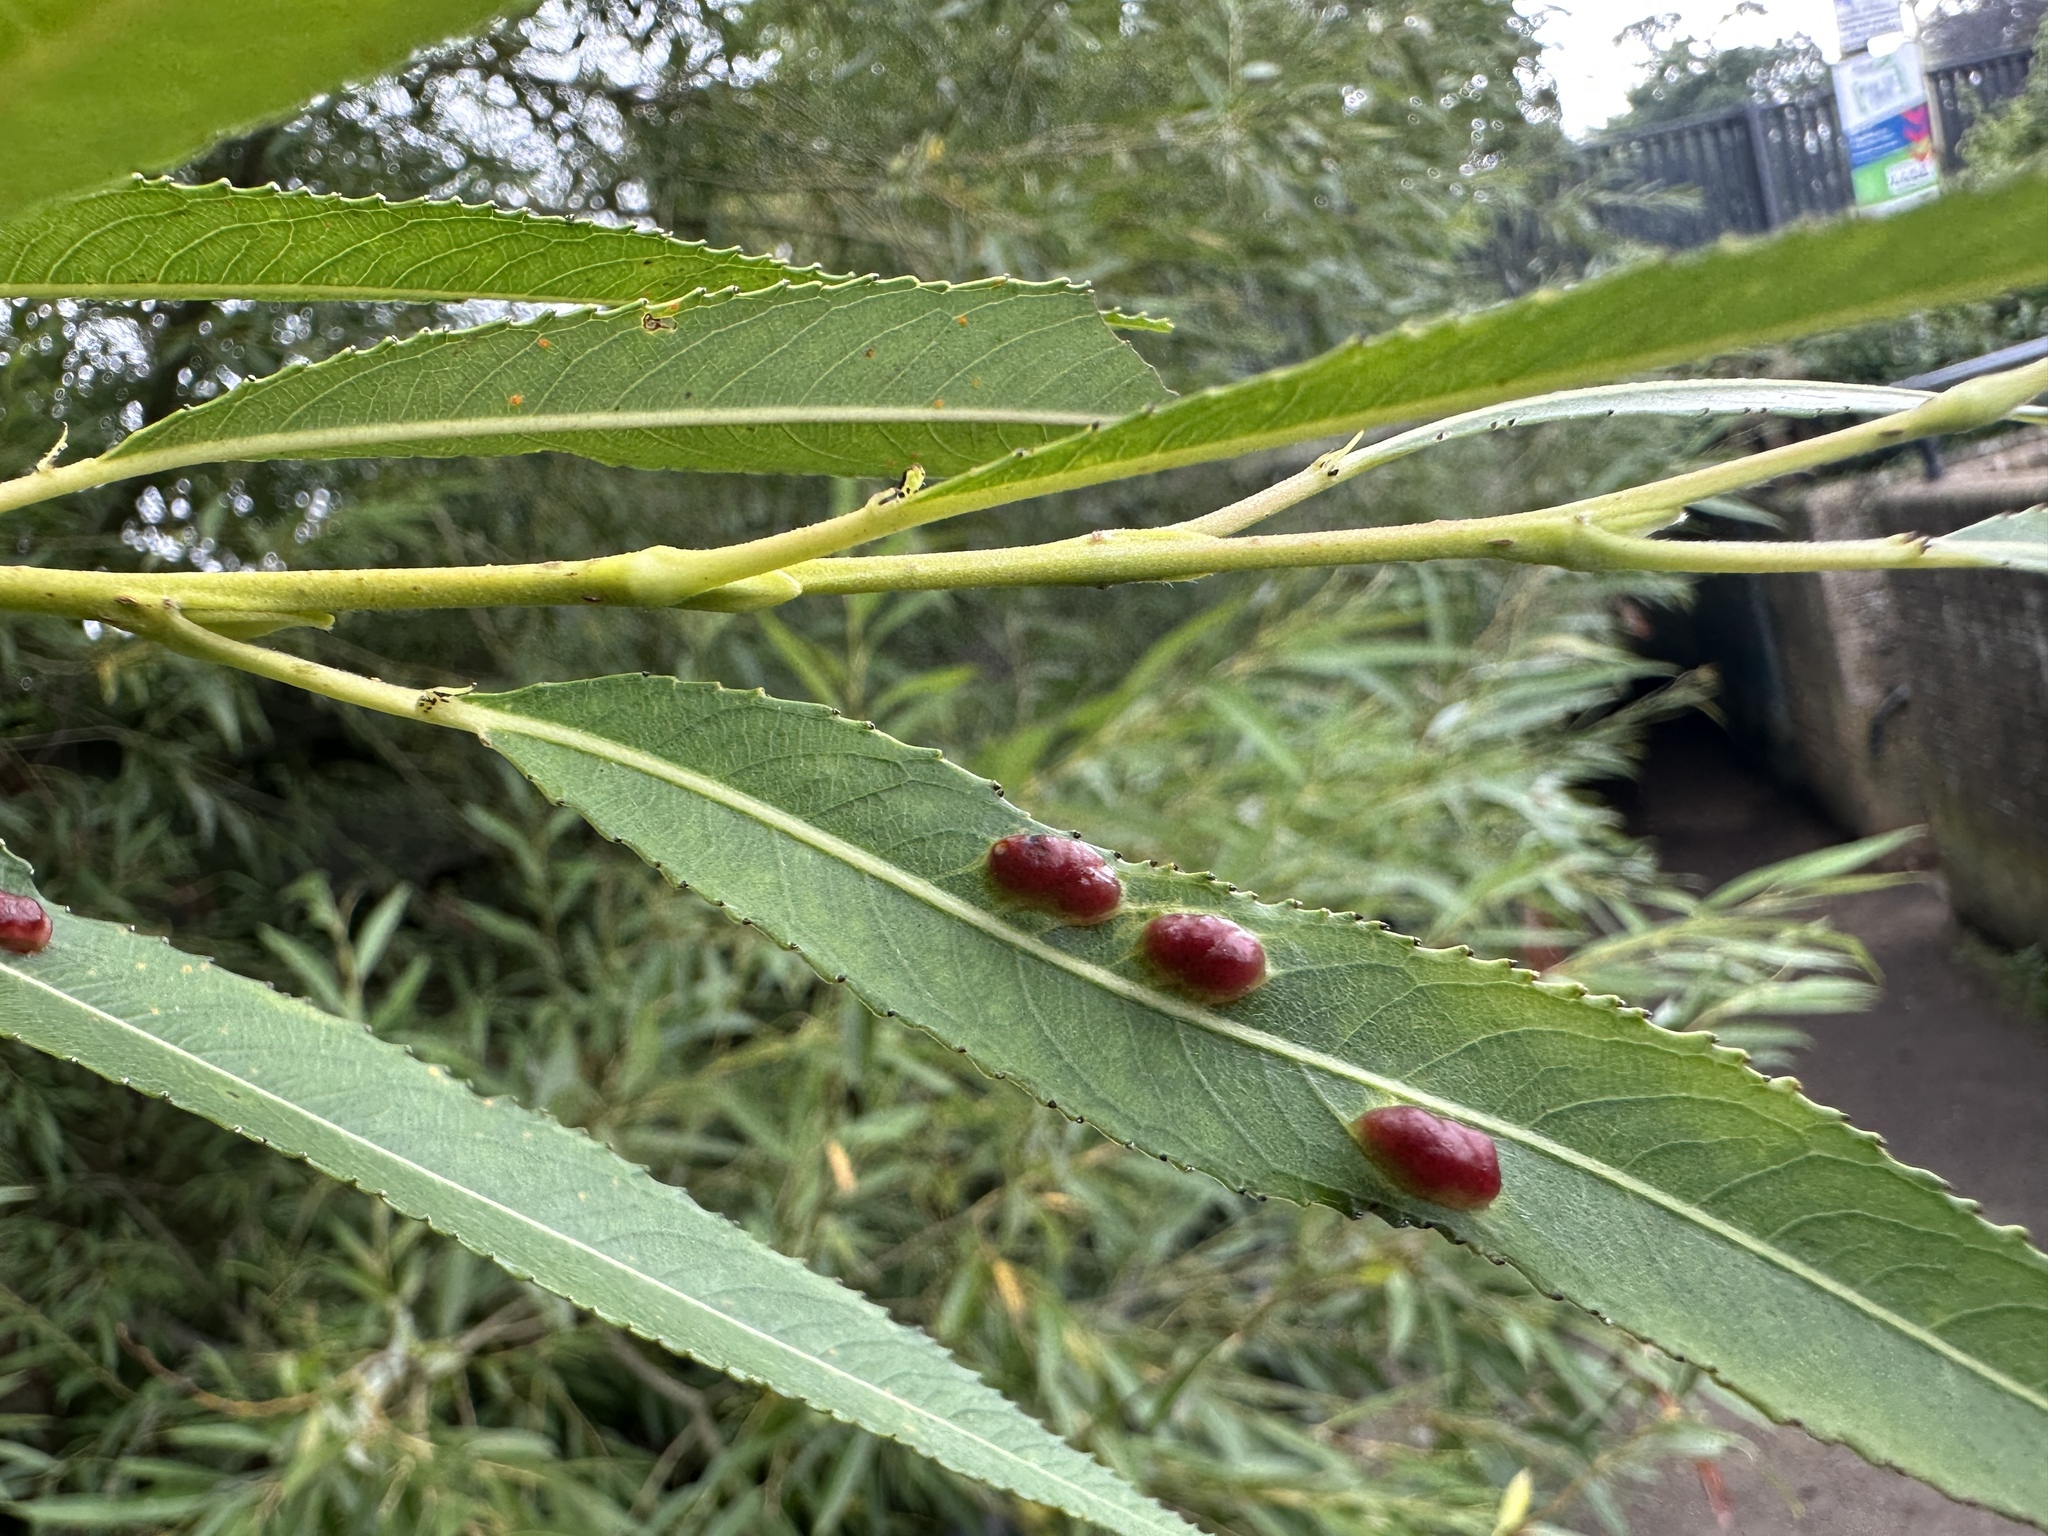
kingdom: Animalia
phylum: Arthropoda
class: Insecta
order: Hymenoptera
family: Tenthredinidae
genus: Pontania
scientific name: Pontania proxima
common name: Common sawfly
